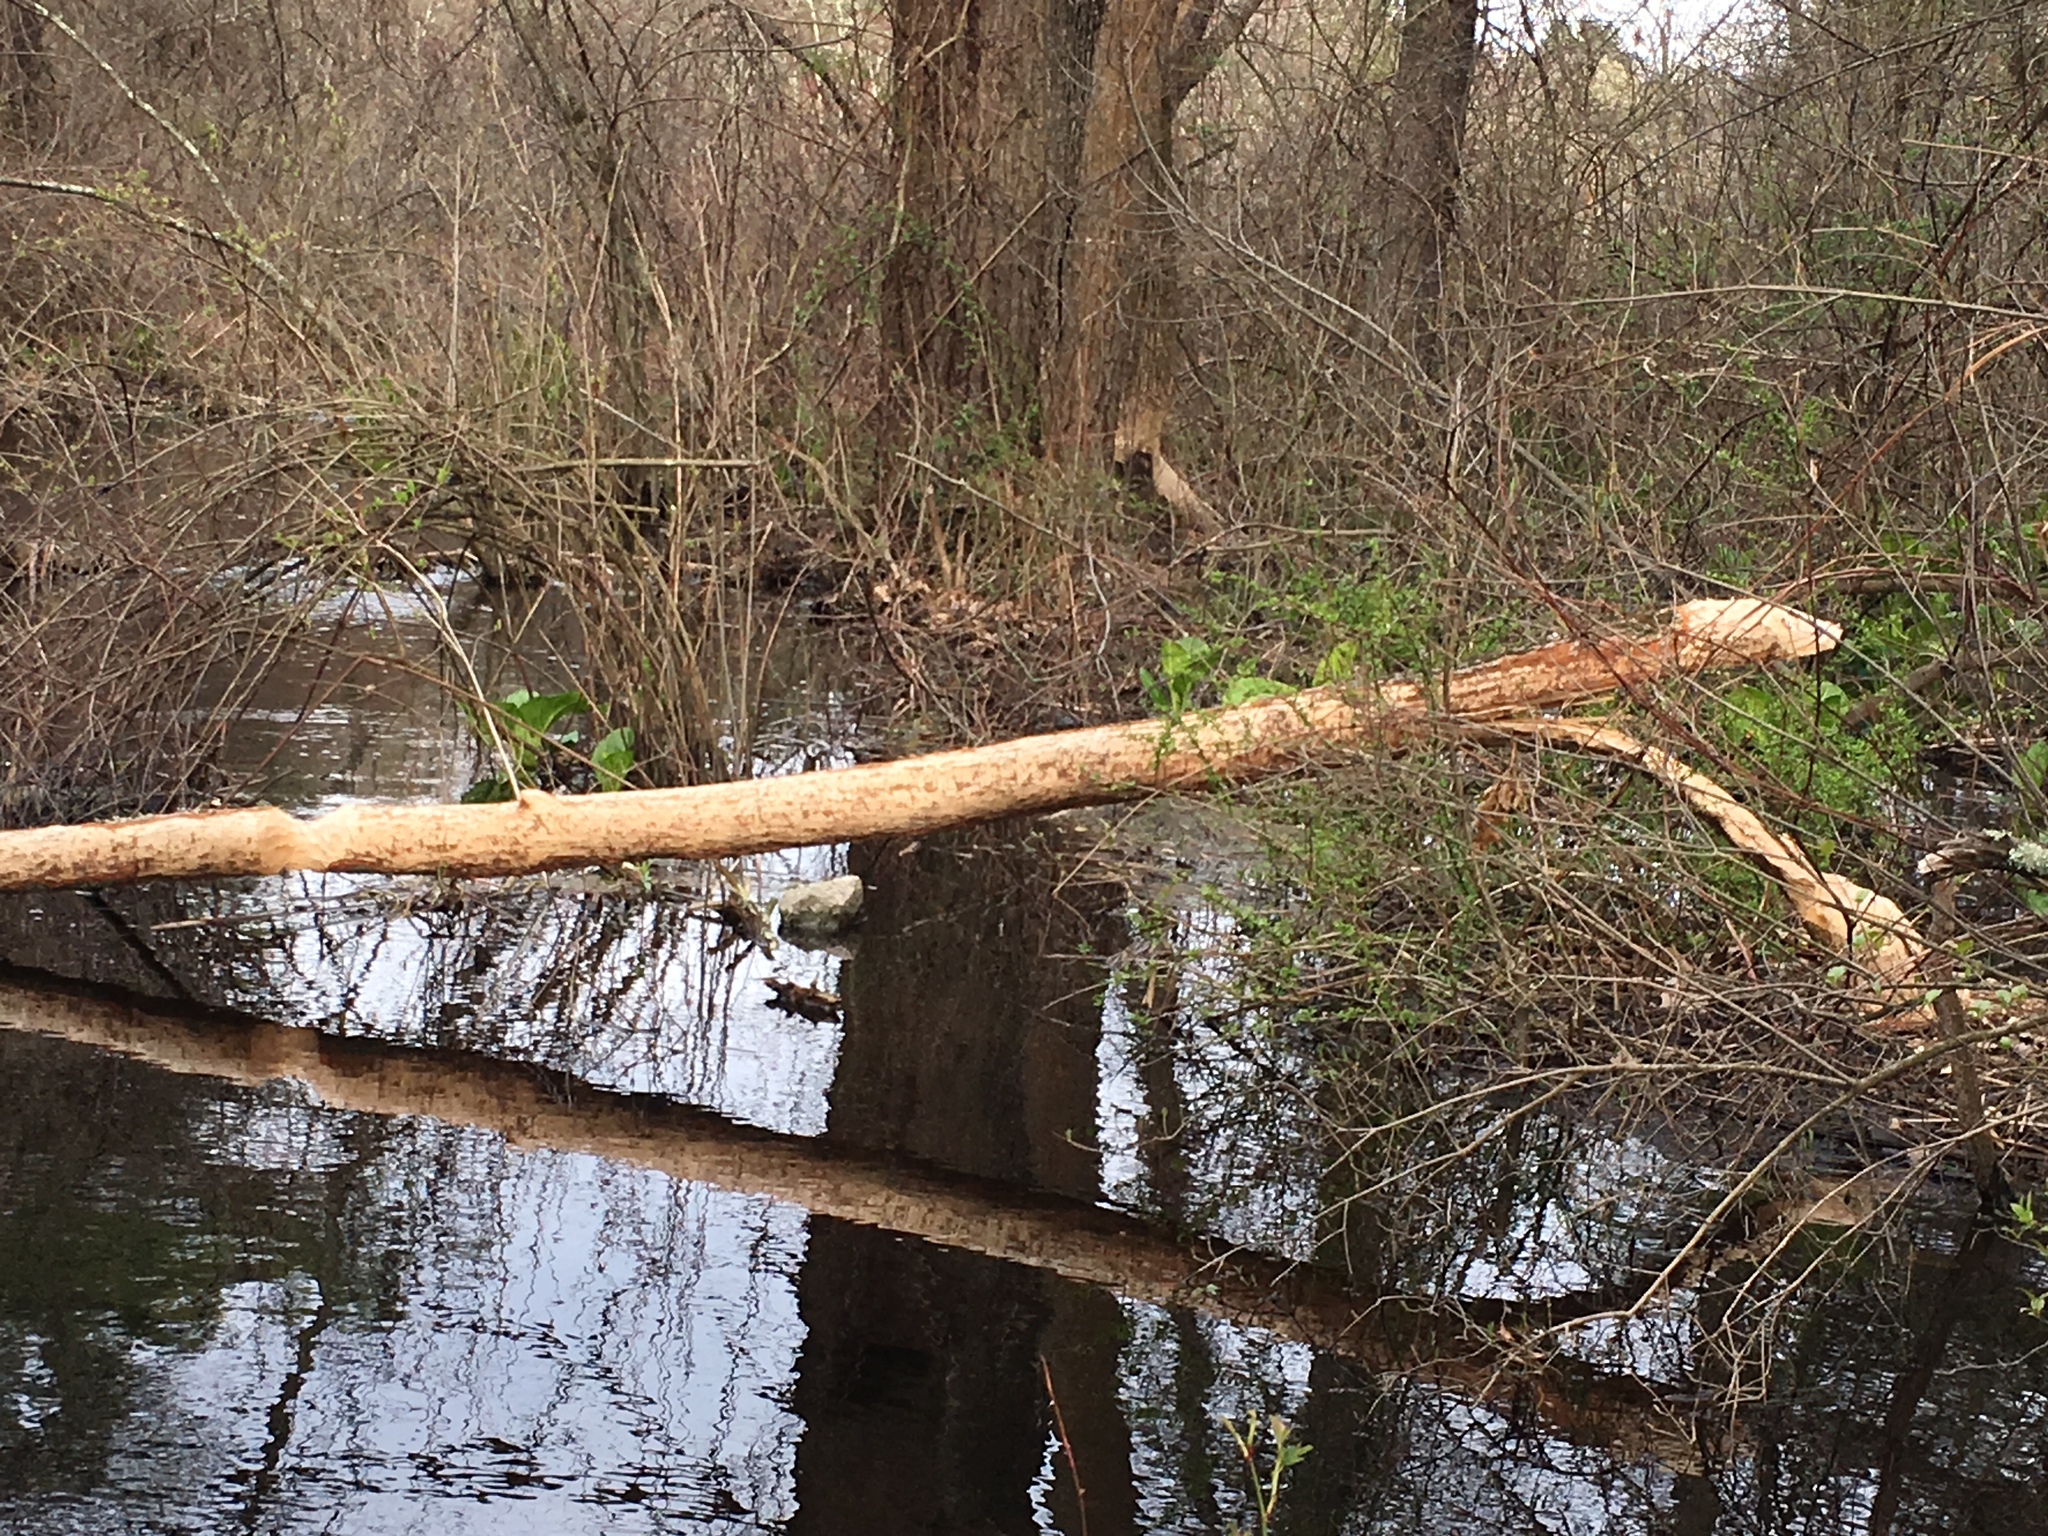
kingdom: Animalia
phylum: Chordata
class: Mammalia
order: Rodentia
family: Castoridae
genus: Castor
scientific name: Castor canadensis
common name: American beaver
